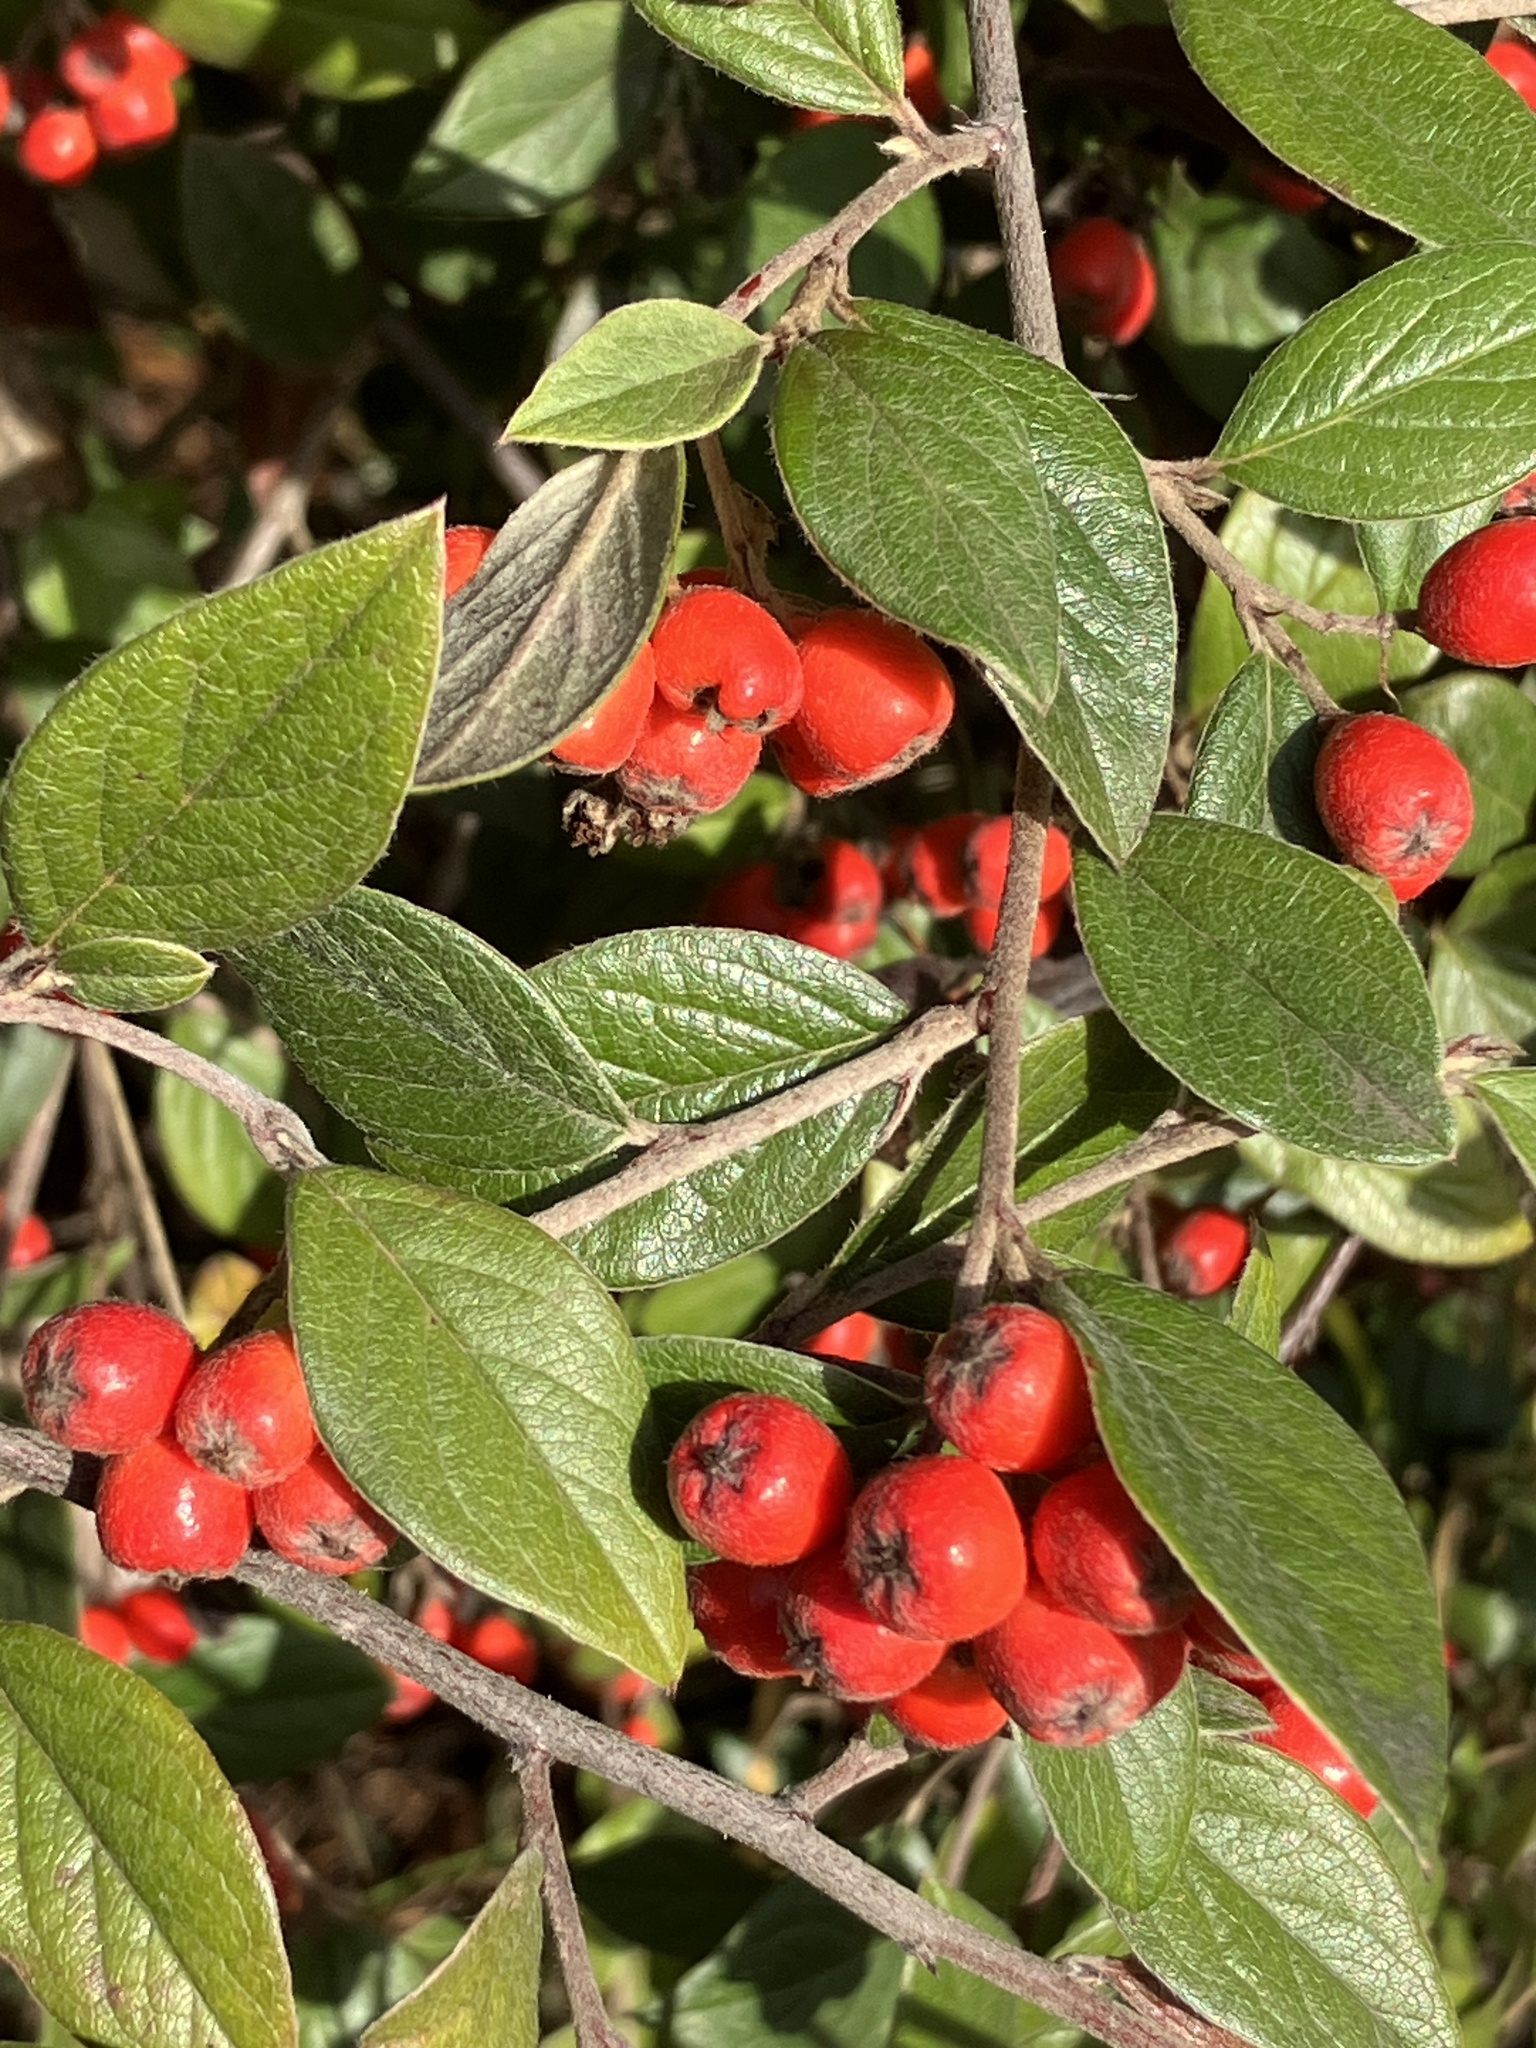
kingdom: Plantae
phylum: Tracheophyta
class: Magnoliopsida
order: Rosales
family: Rosaceae
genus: Cotoneaster
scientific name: Cotoneaster franchetii
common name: Franchet's cotoneaster
